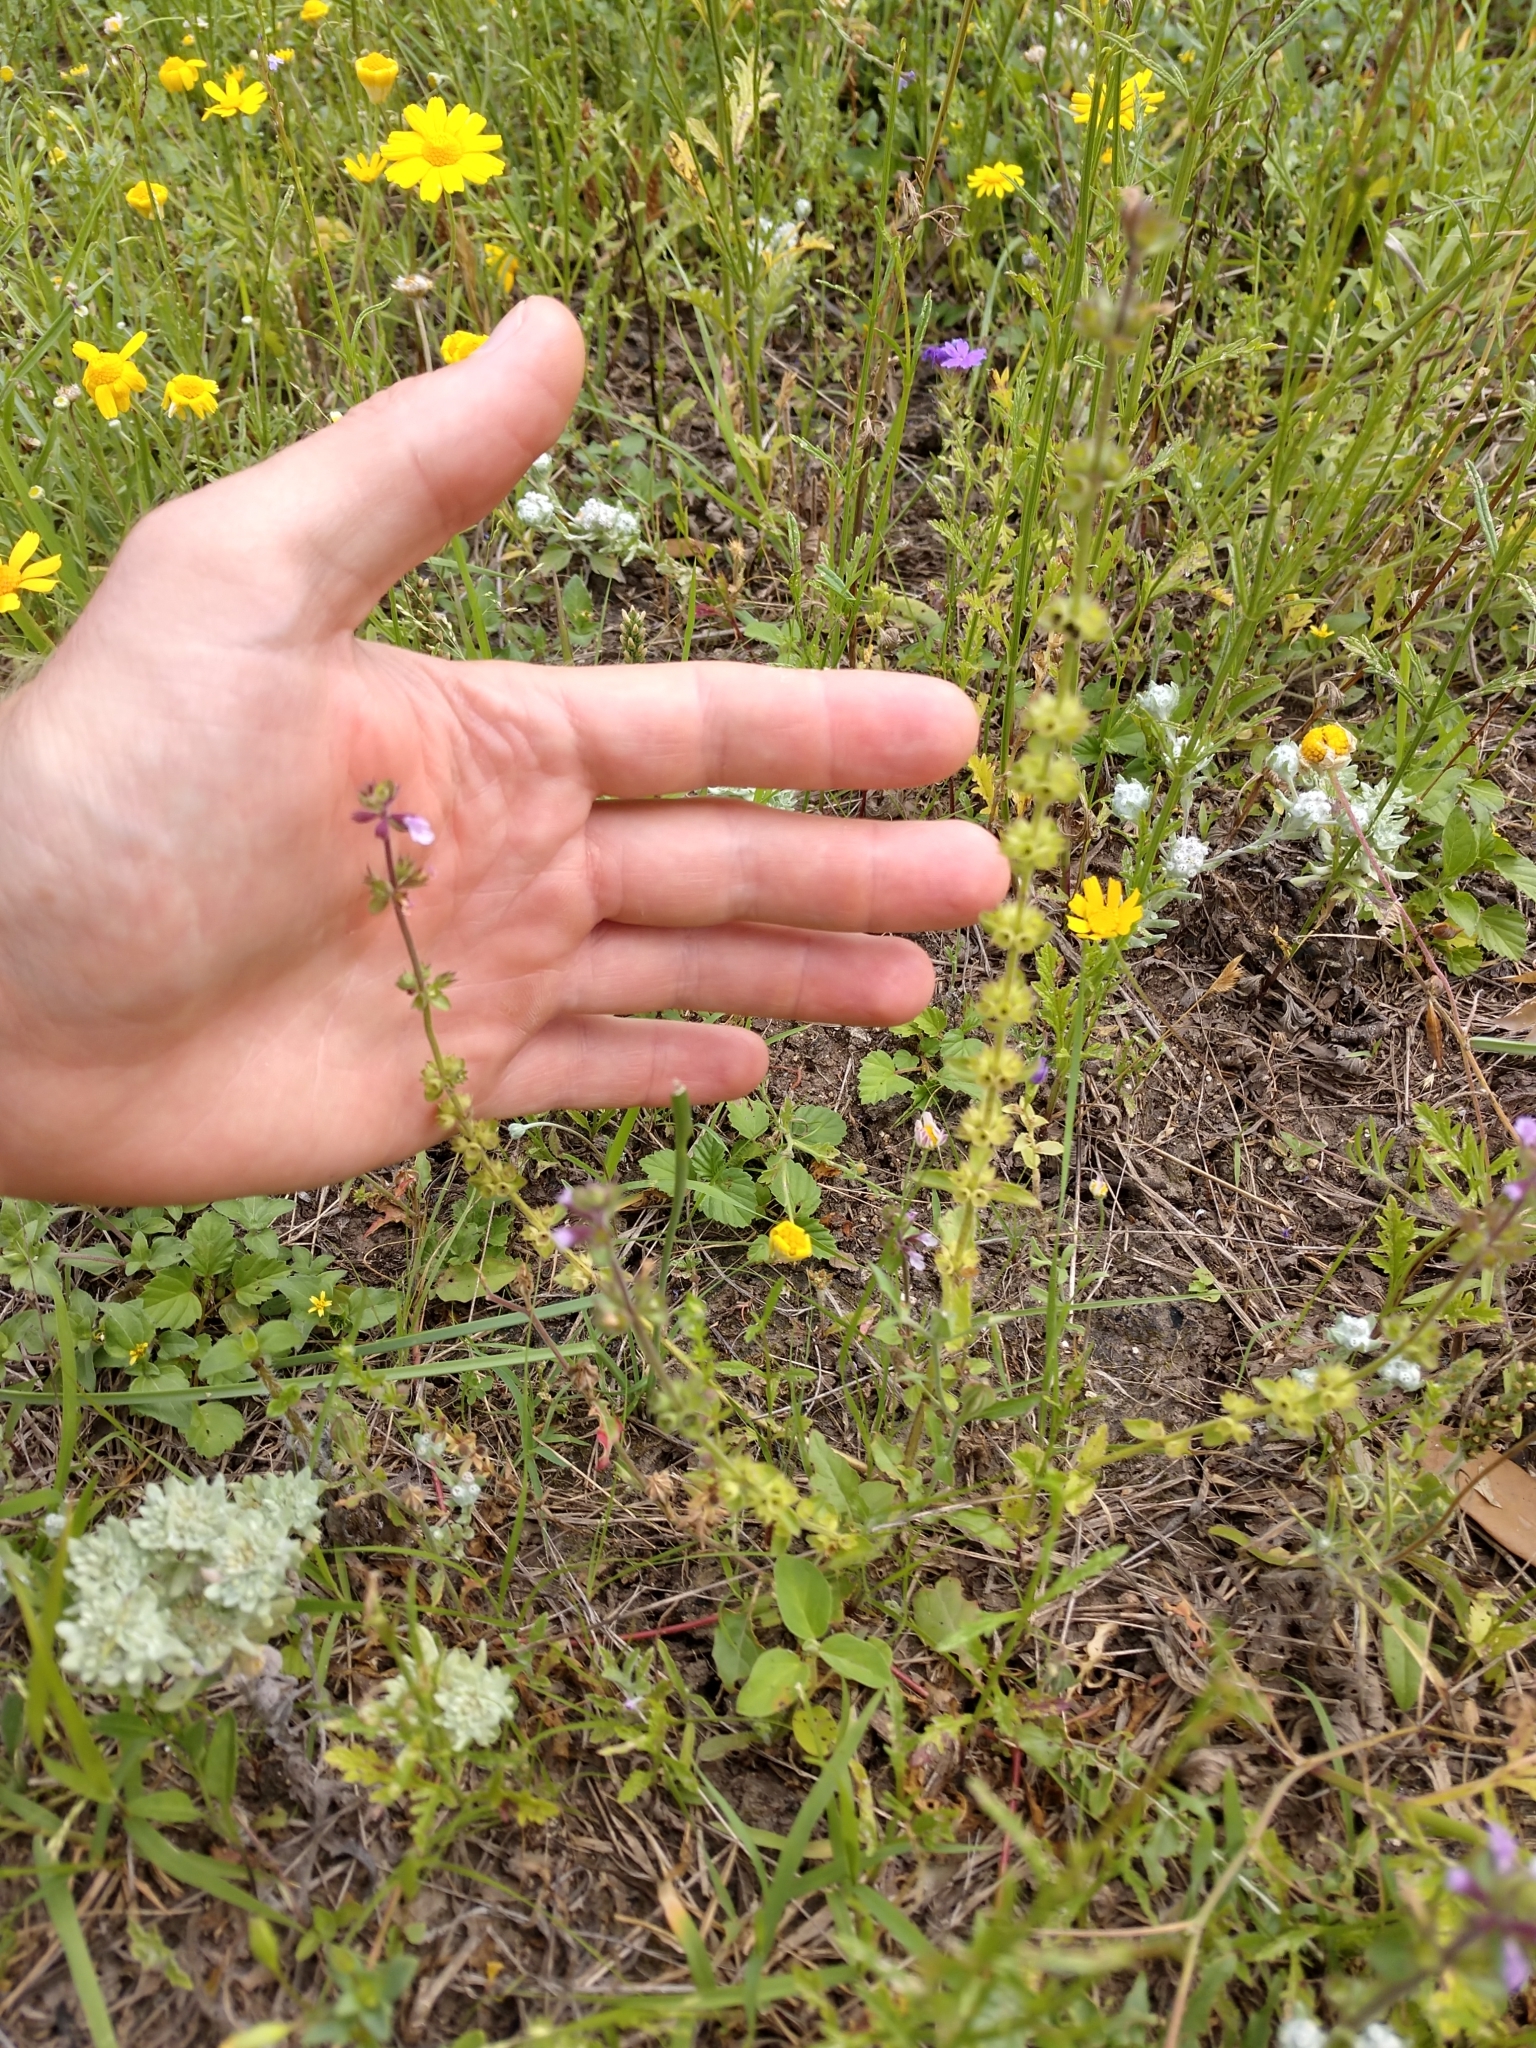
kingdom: Plantae
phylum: Tracheophyta
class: Magnoliopsida
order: Lamiales
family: Lamiaceae
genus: Stachys
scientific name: Stachys
